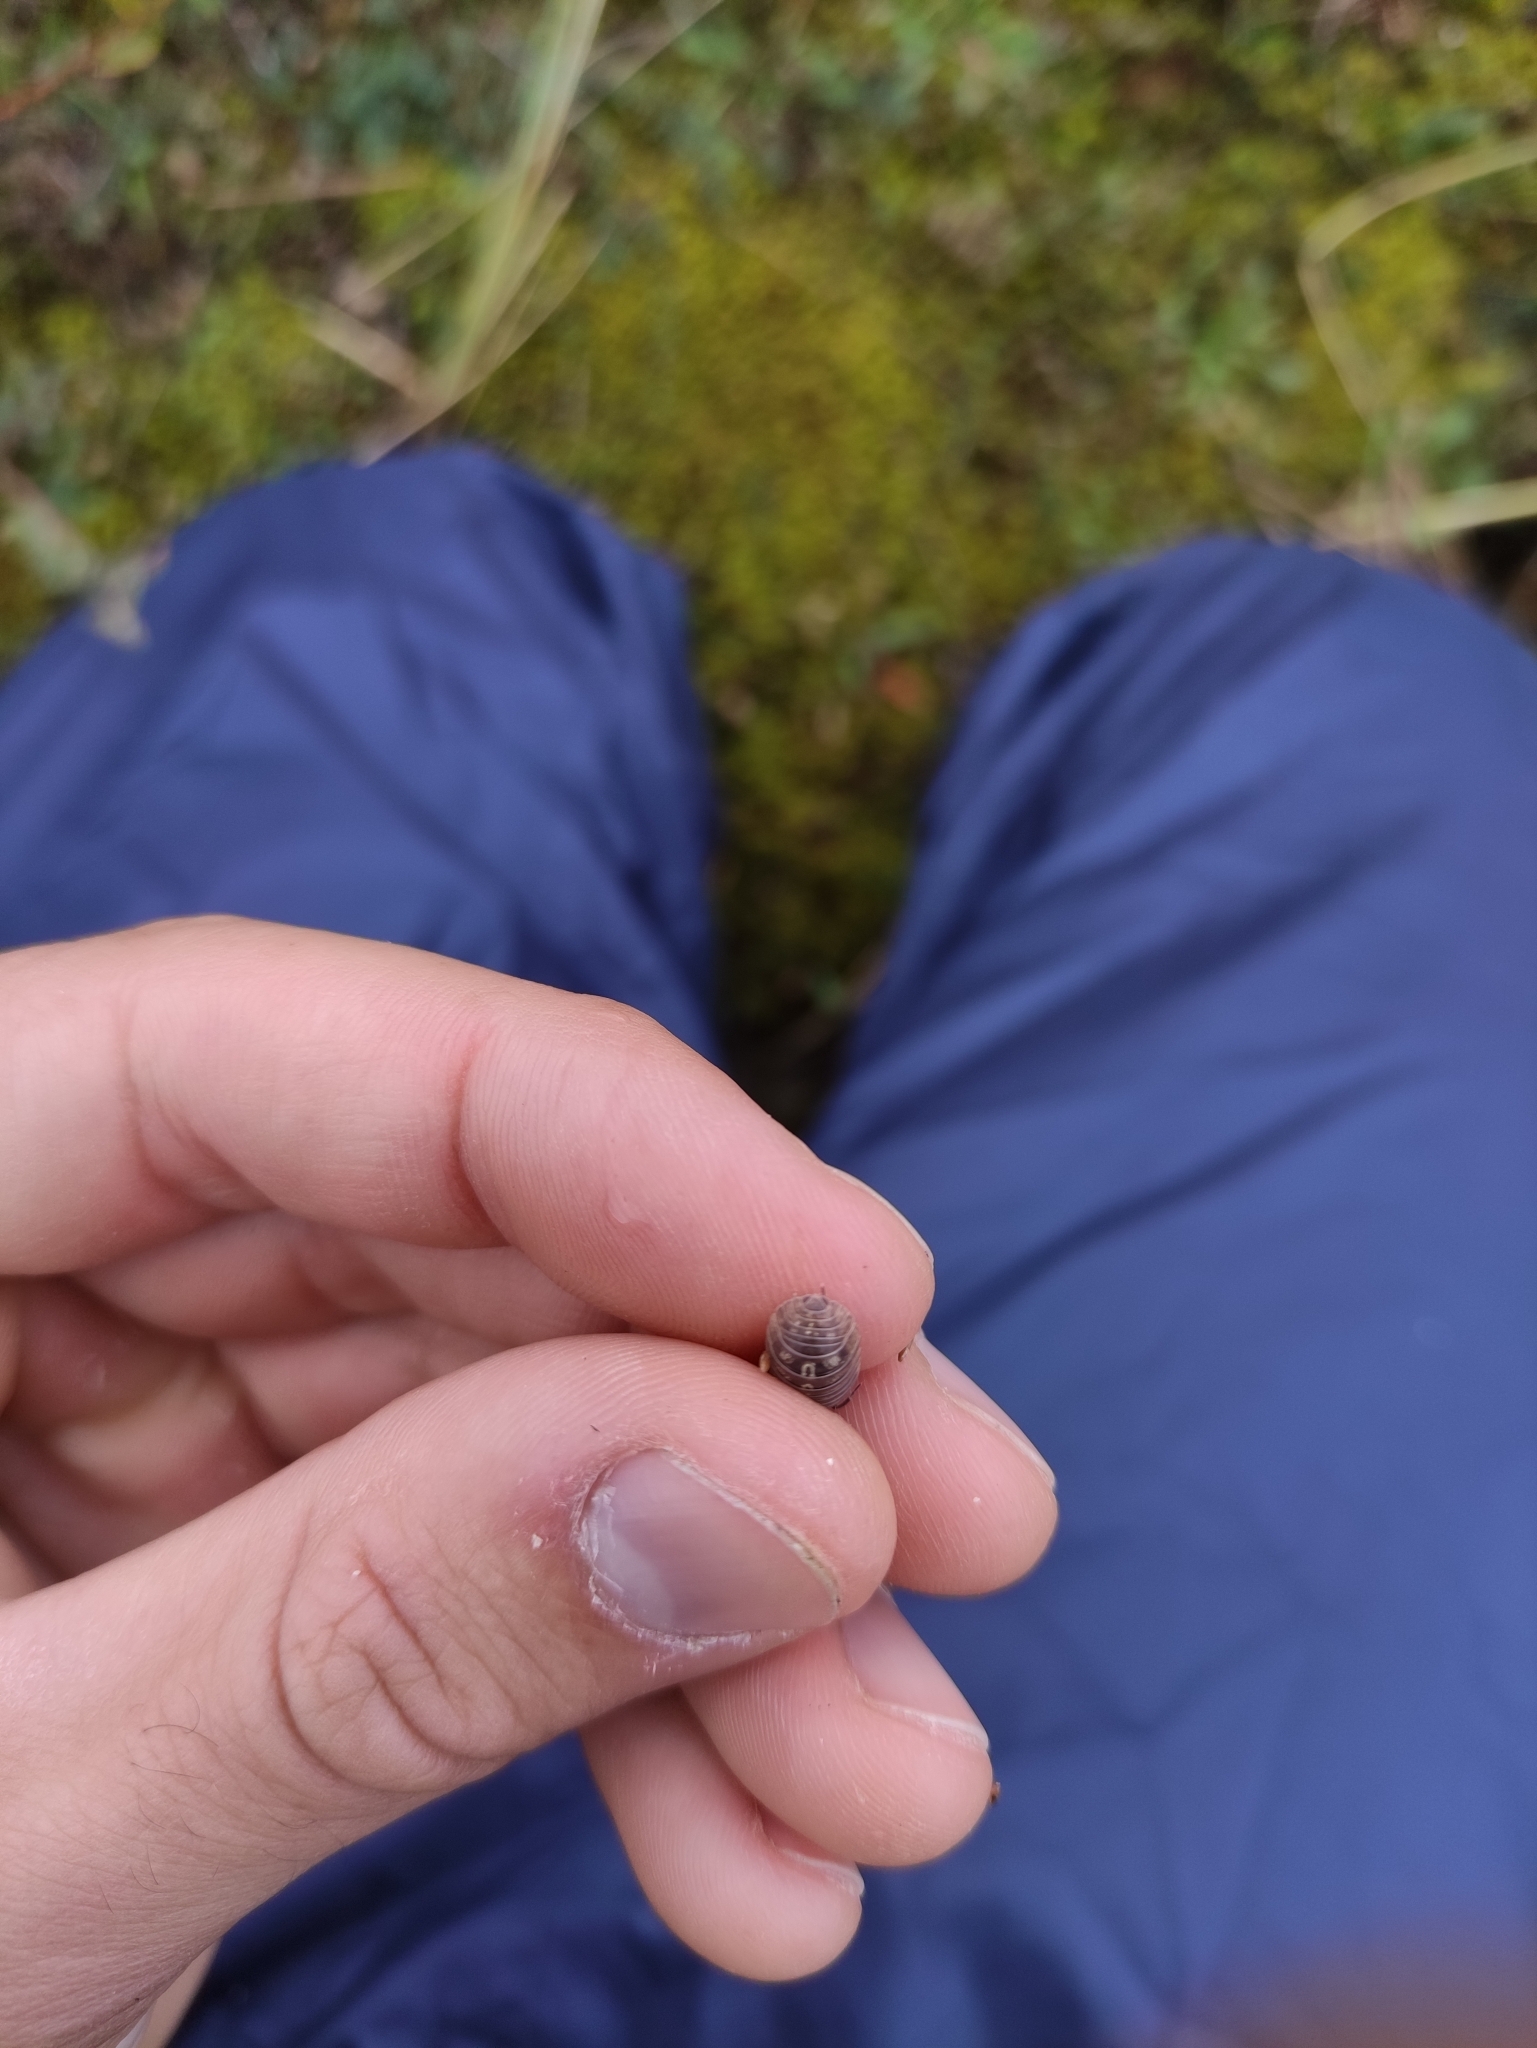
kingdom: Animalia
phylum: Arthropoda
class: Malacostraca
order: Isopoda
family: Armadillidiidae
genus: Armadillidium
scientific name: Armadillidium vulgare
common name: Common pill woodlouse
